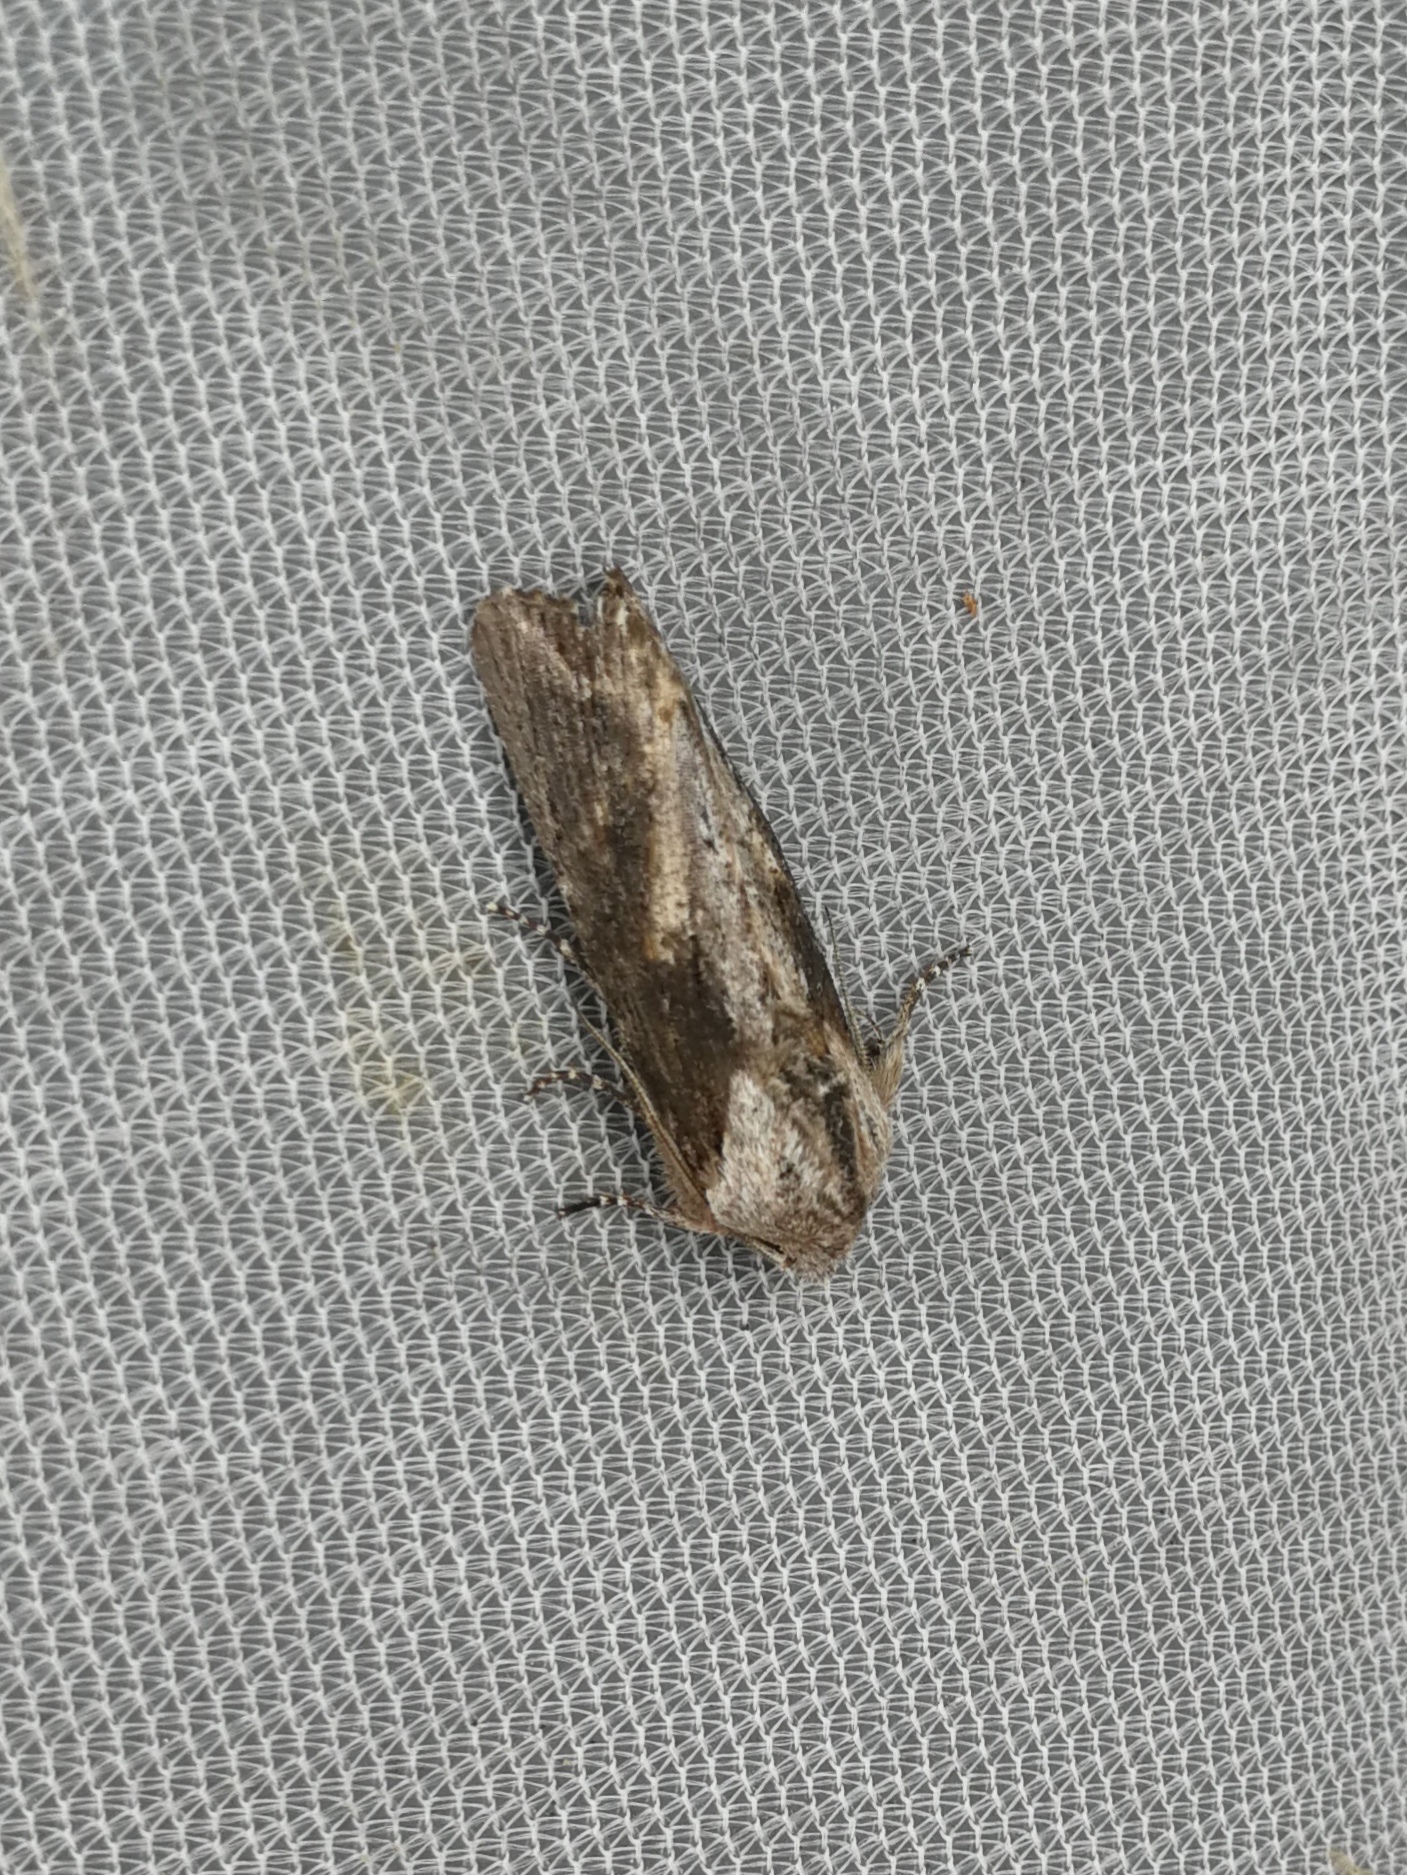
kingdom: Animalia
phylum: Arthropoda
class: Insecta
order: Lepidoptera
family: Noctuidae
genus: Egira
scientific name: Egira conspicillaris
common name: Silver cloud
